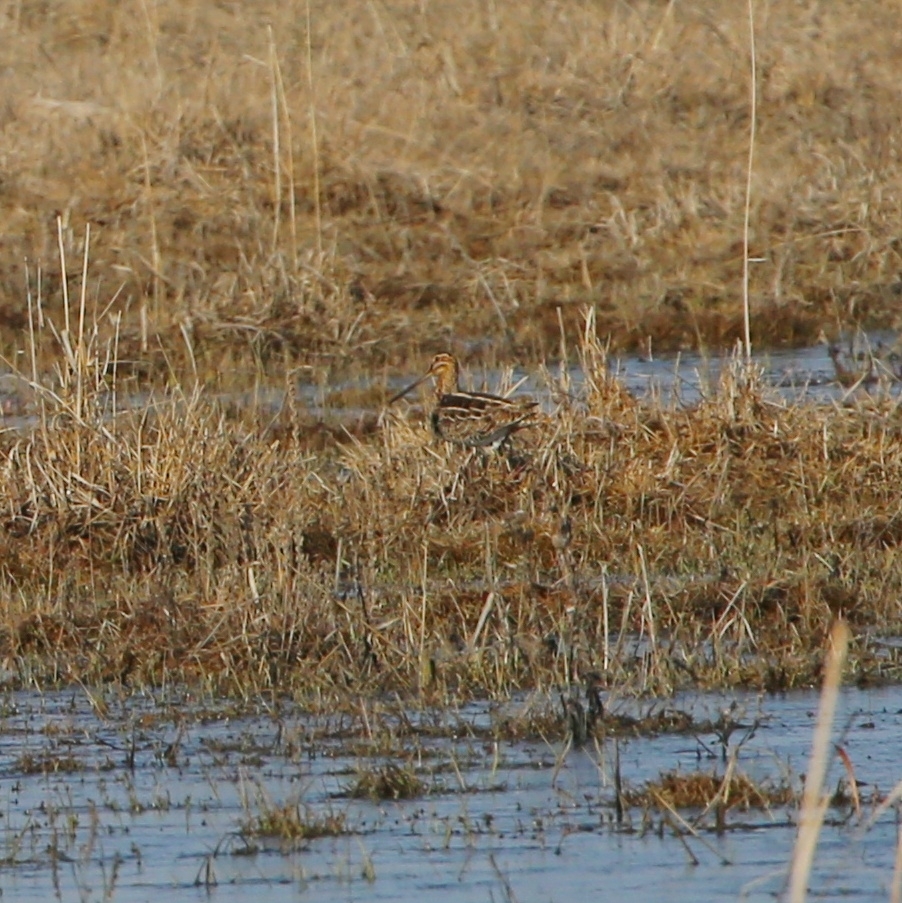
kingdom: Animalia
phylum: Chordata
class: Aves
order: Charadriiformes
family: Scolopacidae
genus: Gallinago
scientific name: Gallinago gallinago
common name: Common snipe
